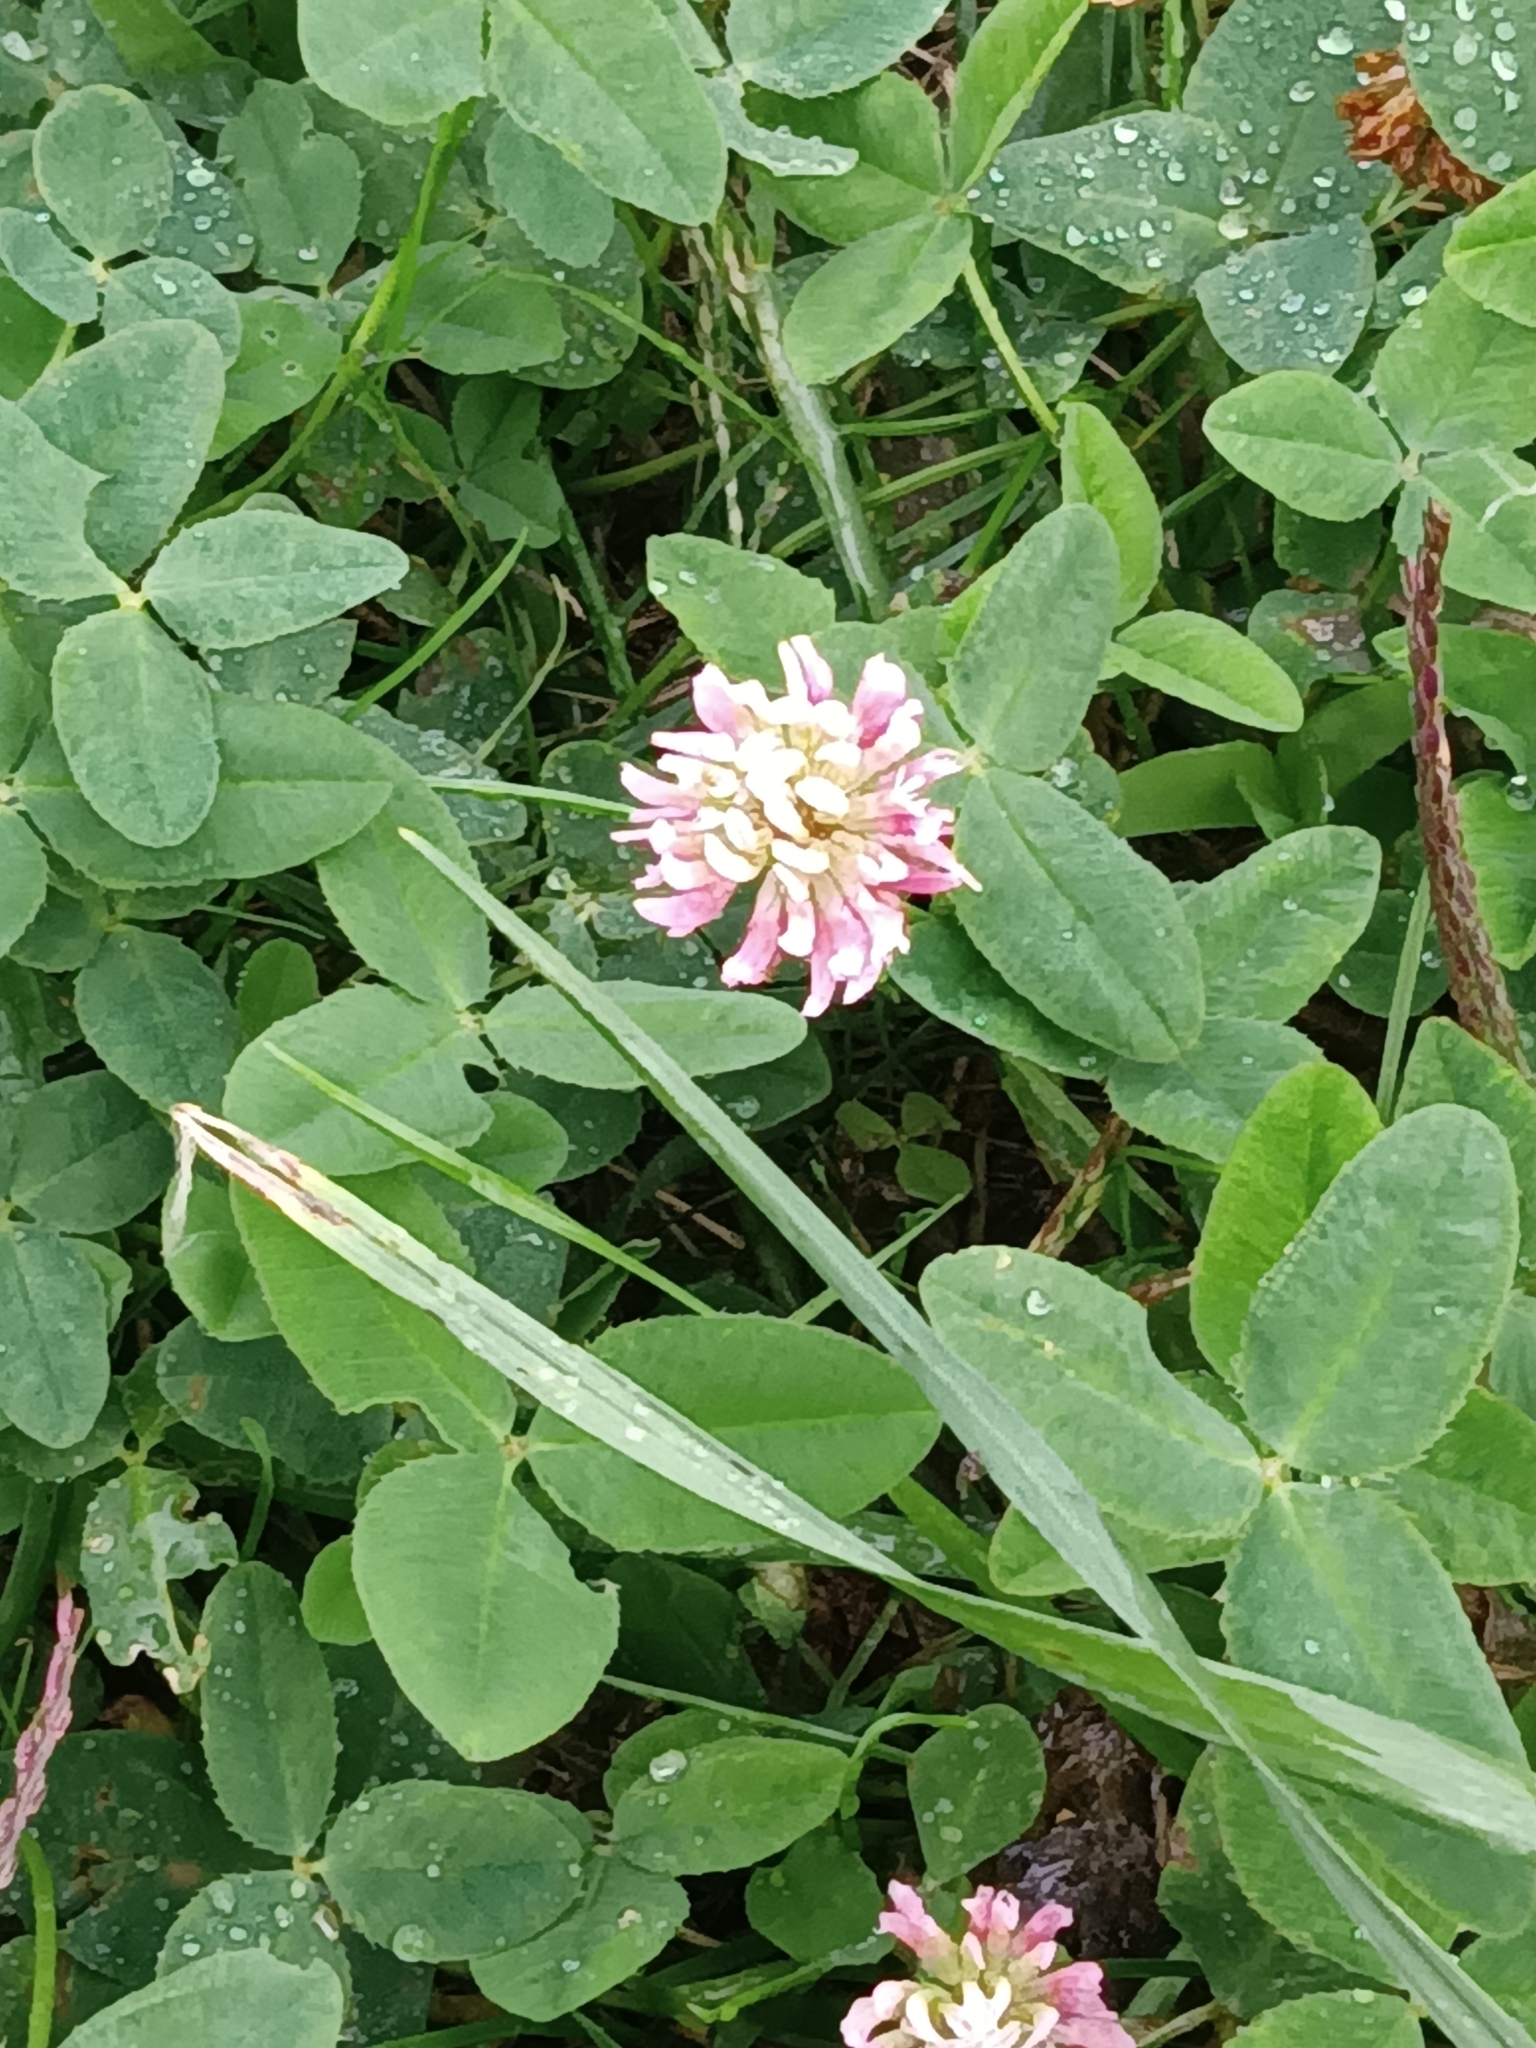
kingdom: Plantae
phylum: Tracheophyta
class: Magnoliopsida
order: Fabales
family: Fabaceae
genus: Trifolium
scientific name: Trifolium hybridum
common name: Alsike clover
